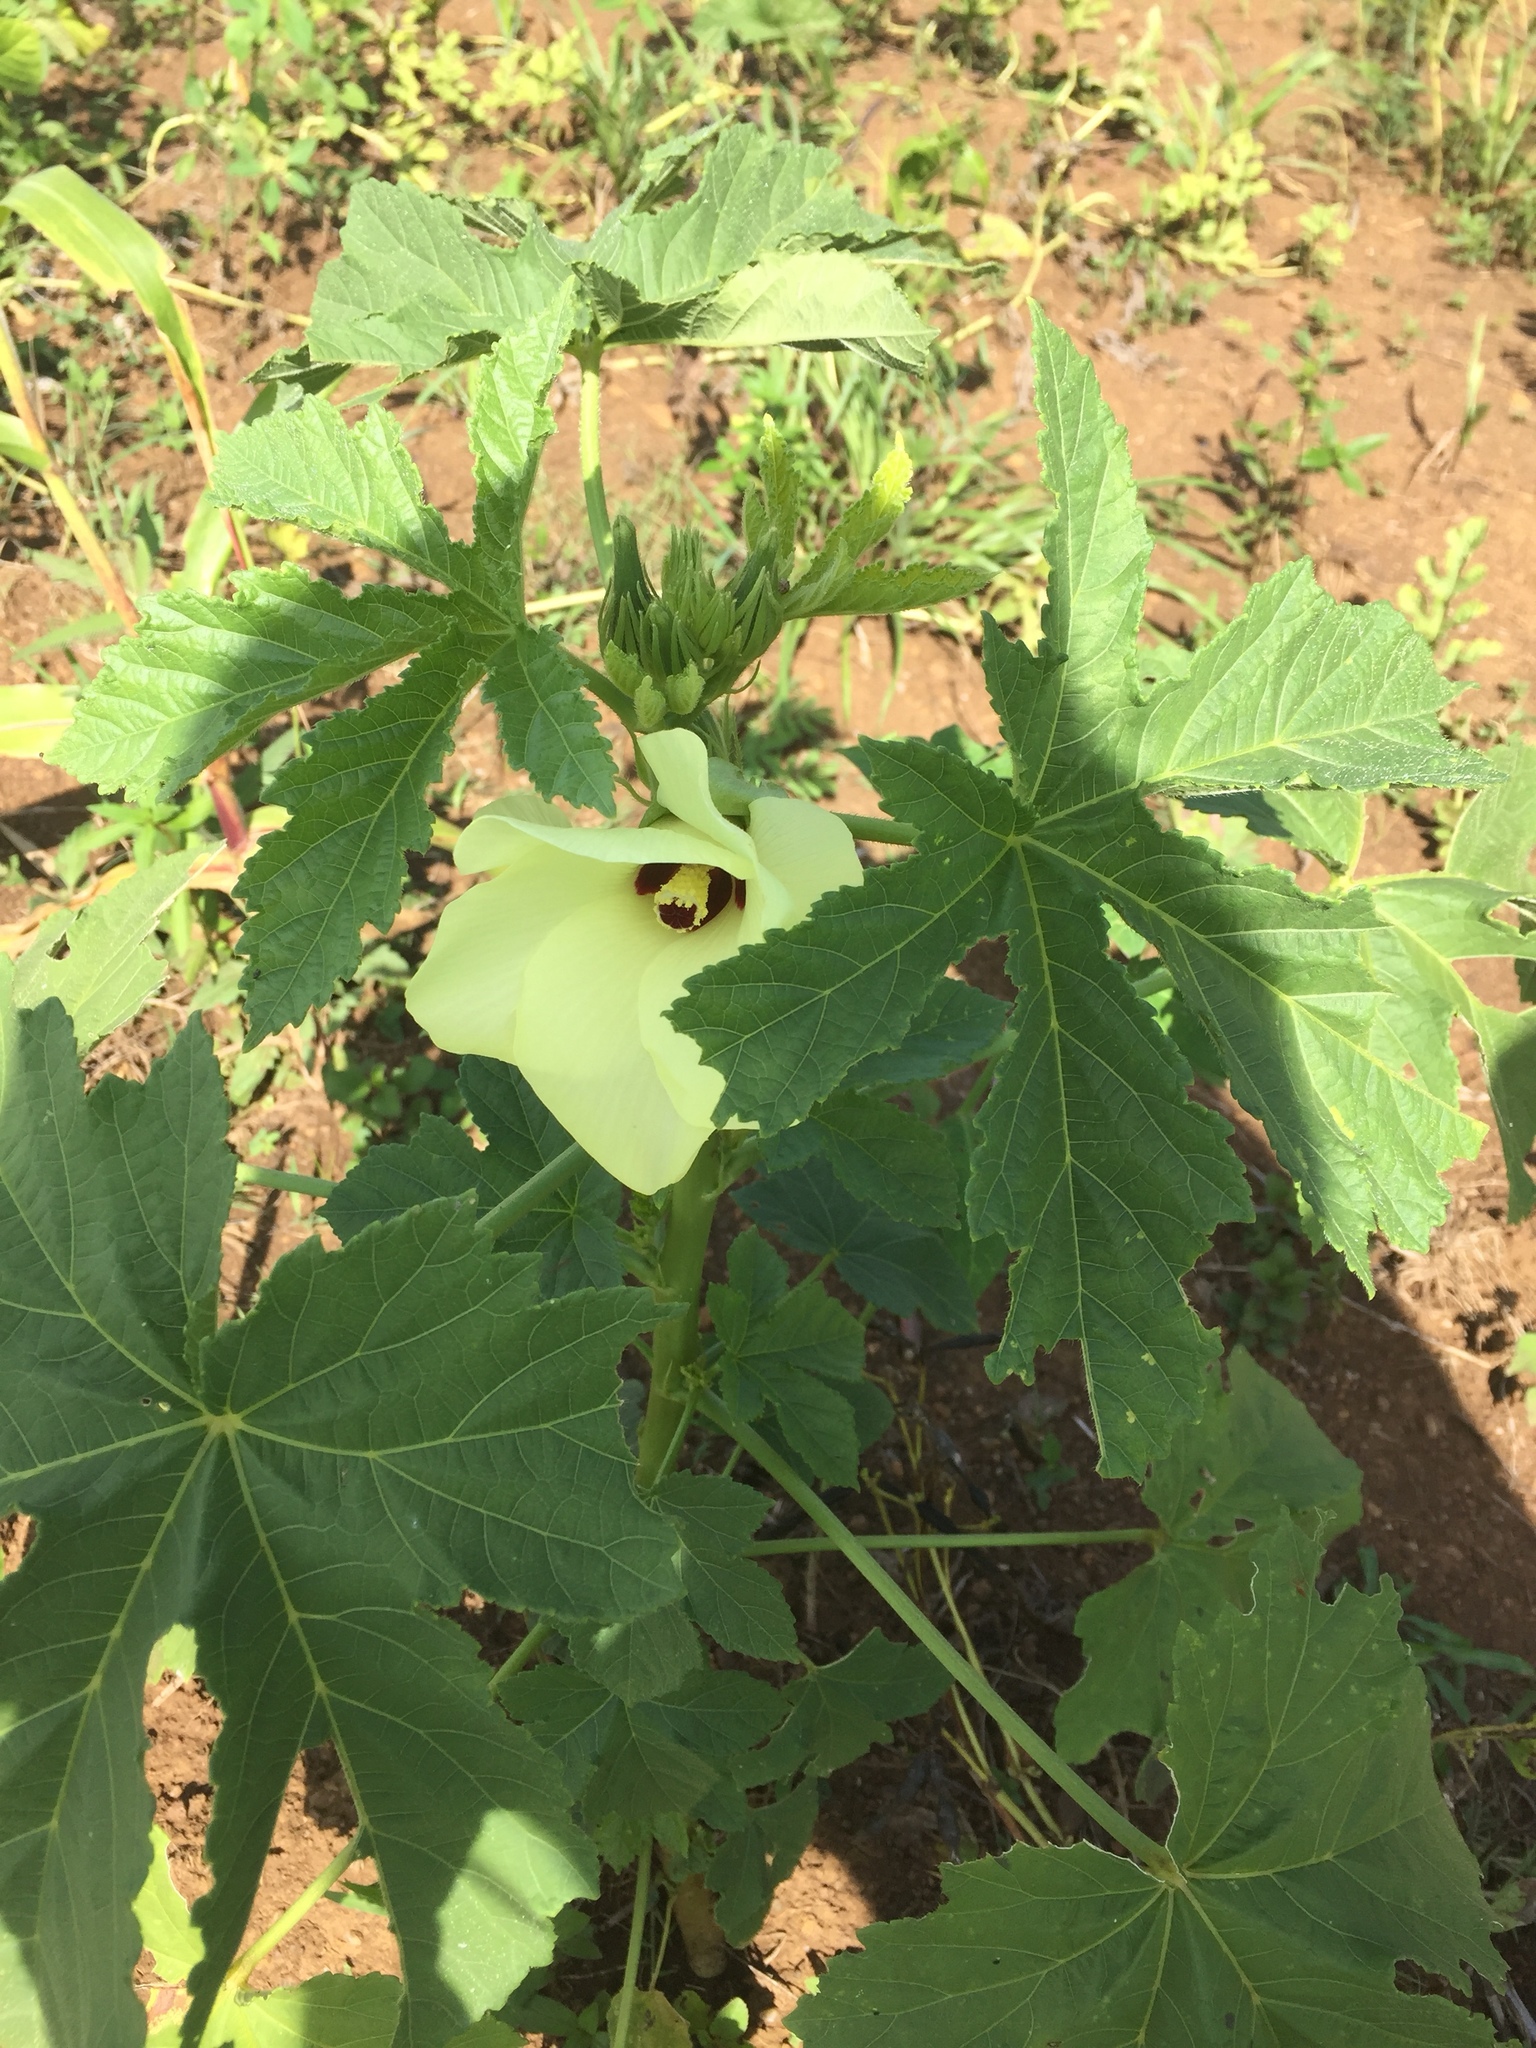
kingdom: Plantae
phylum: Tracheophyta
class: Magnoliopsida
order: Malvales
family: Malvaceae
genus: Abelmoschus
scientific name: Abelmoschus esculentus
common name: Okra
